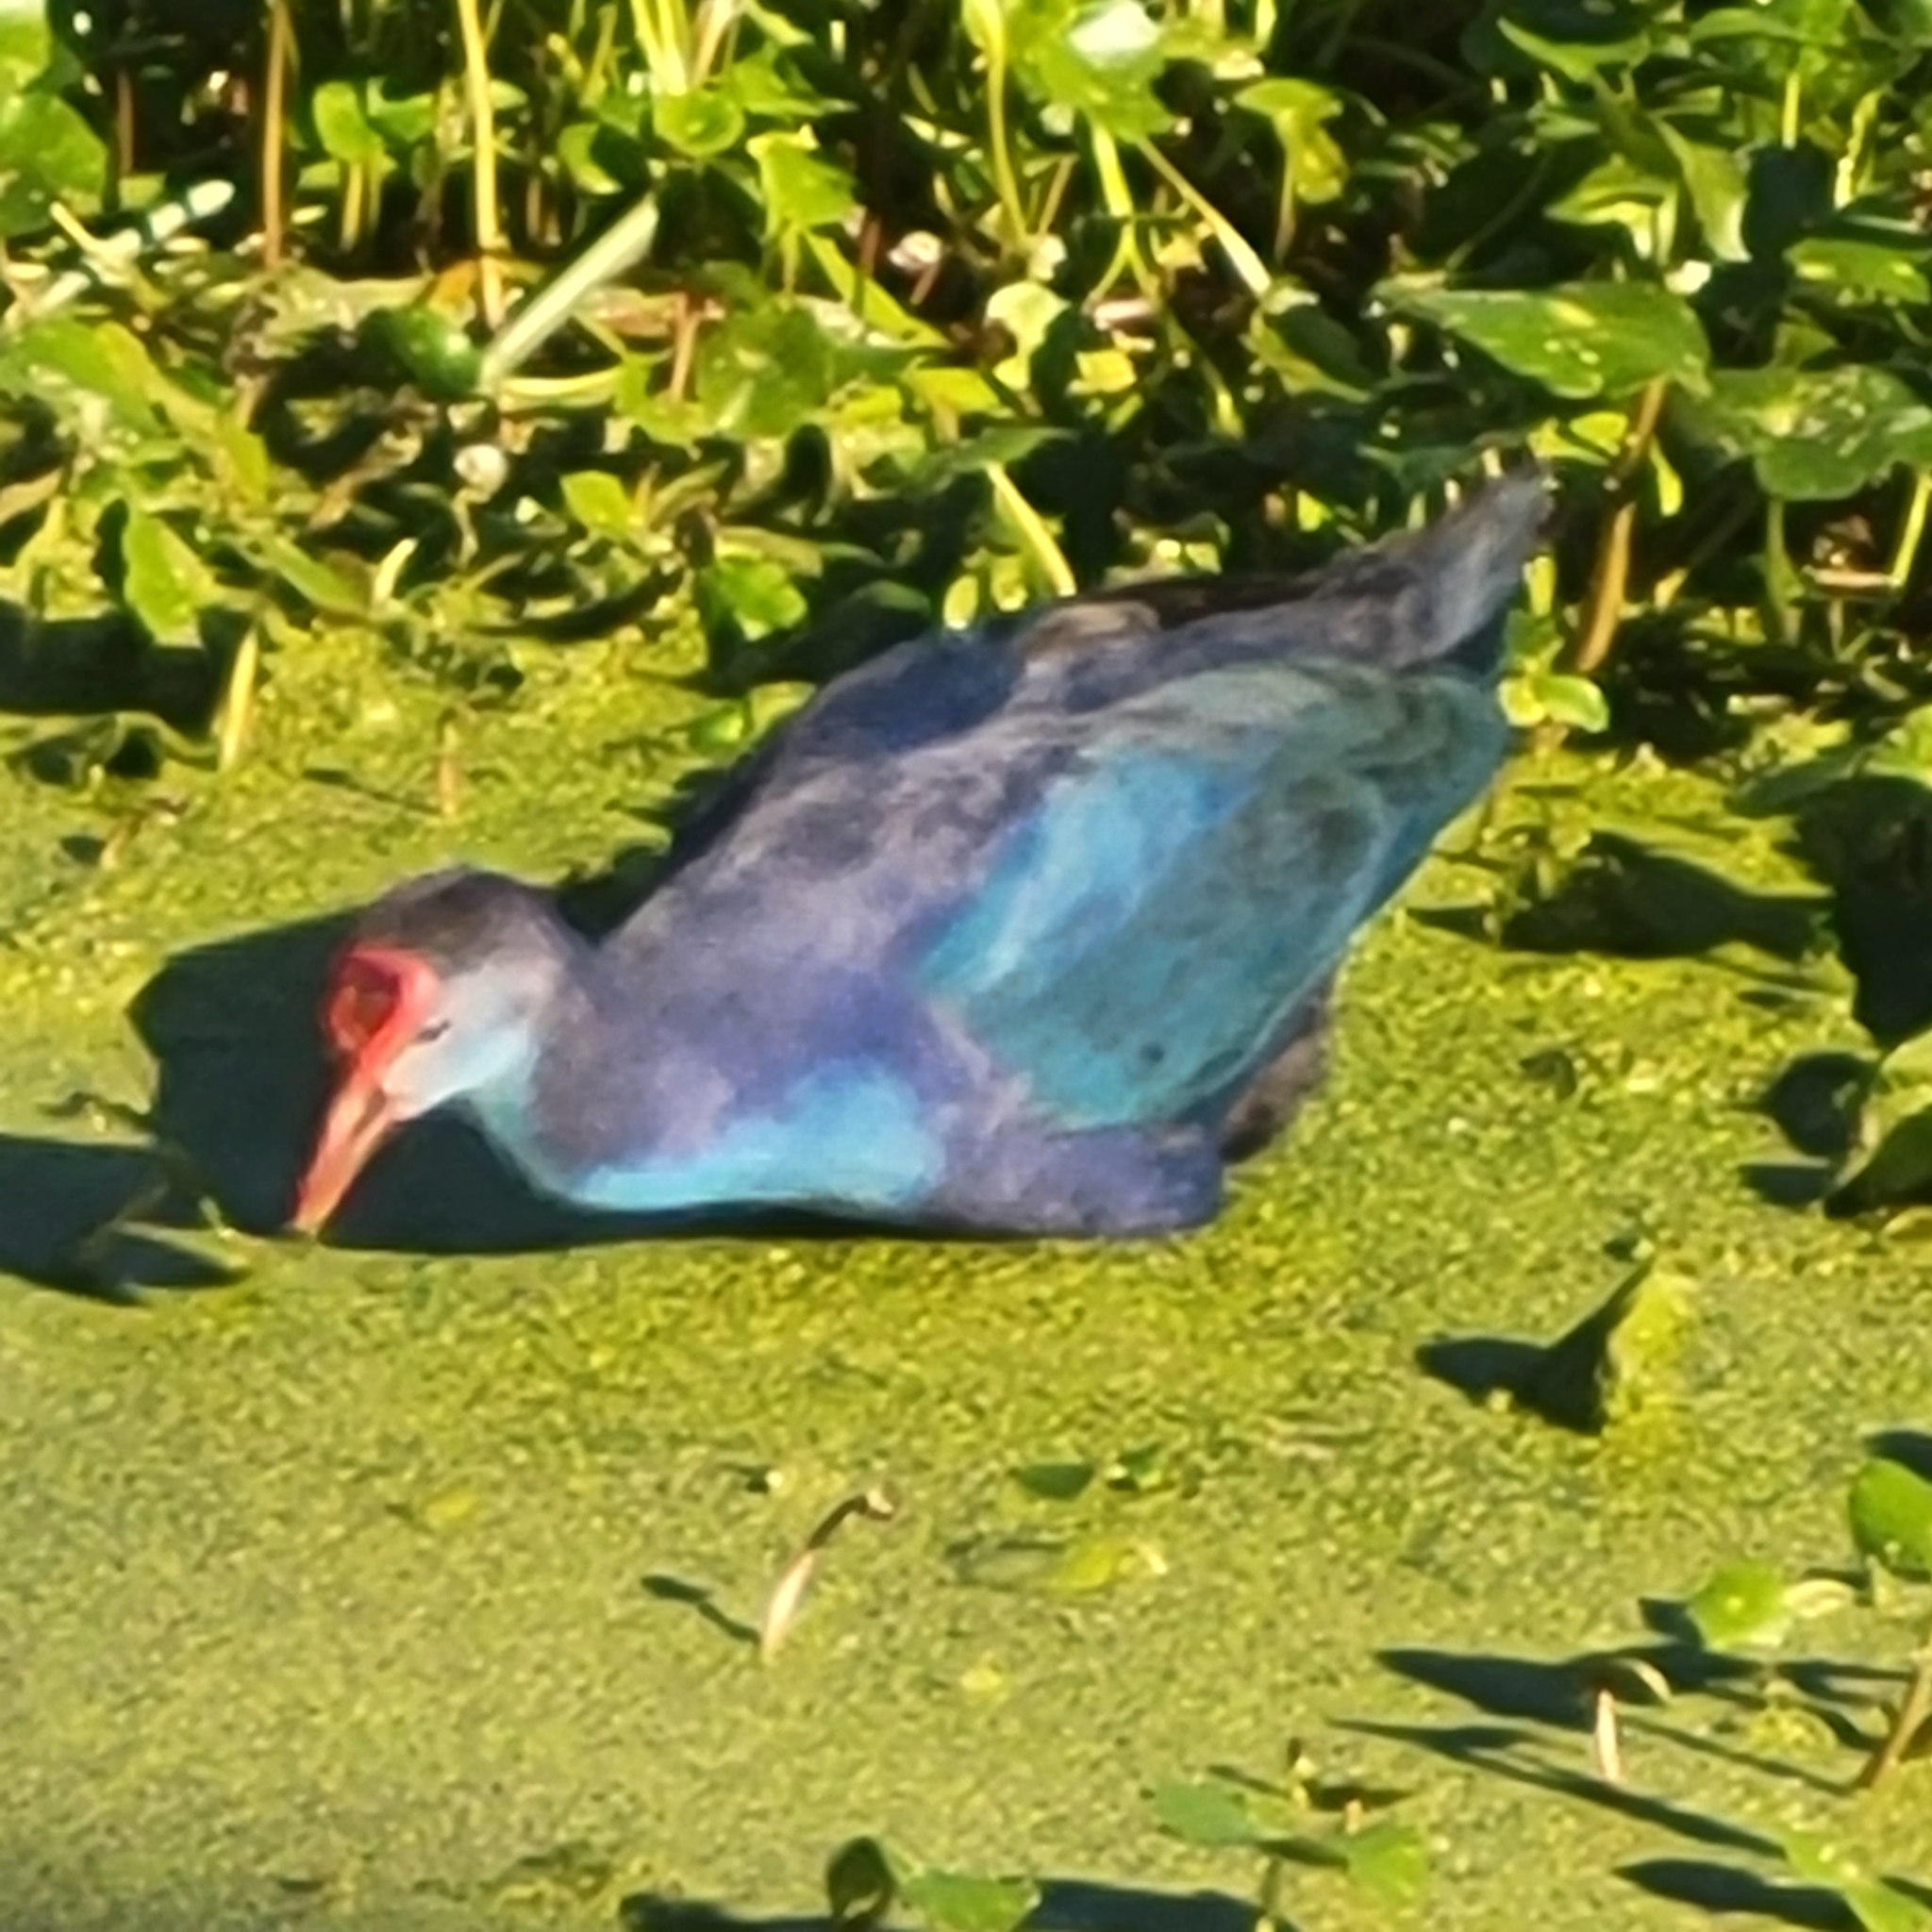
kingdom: Animalia
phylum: Chordata
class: Aves
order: Gruiformes
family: Rallidae
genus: Porphyrio
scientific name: Porphyrio porphyrio
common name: Purple swamphen
